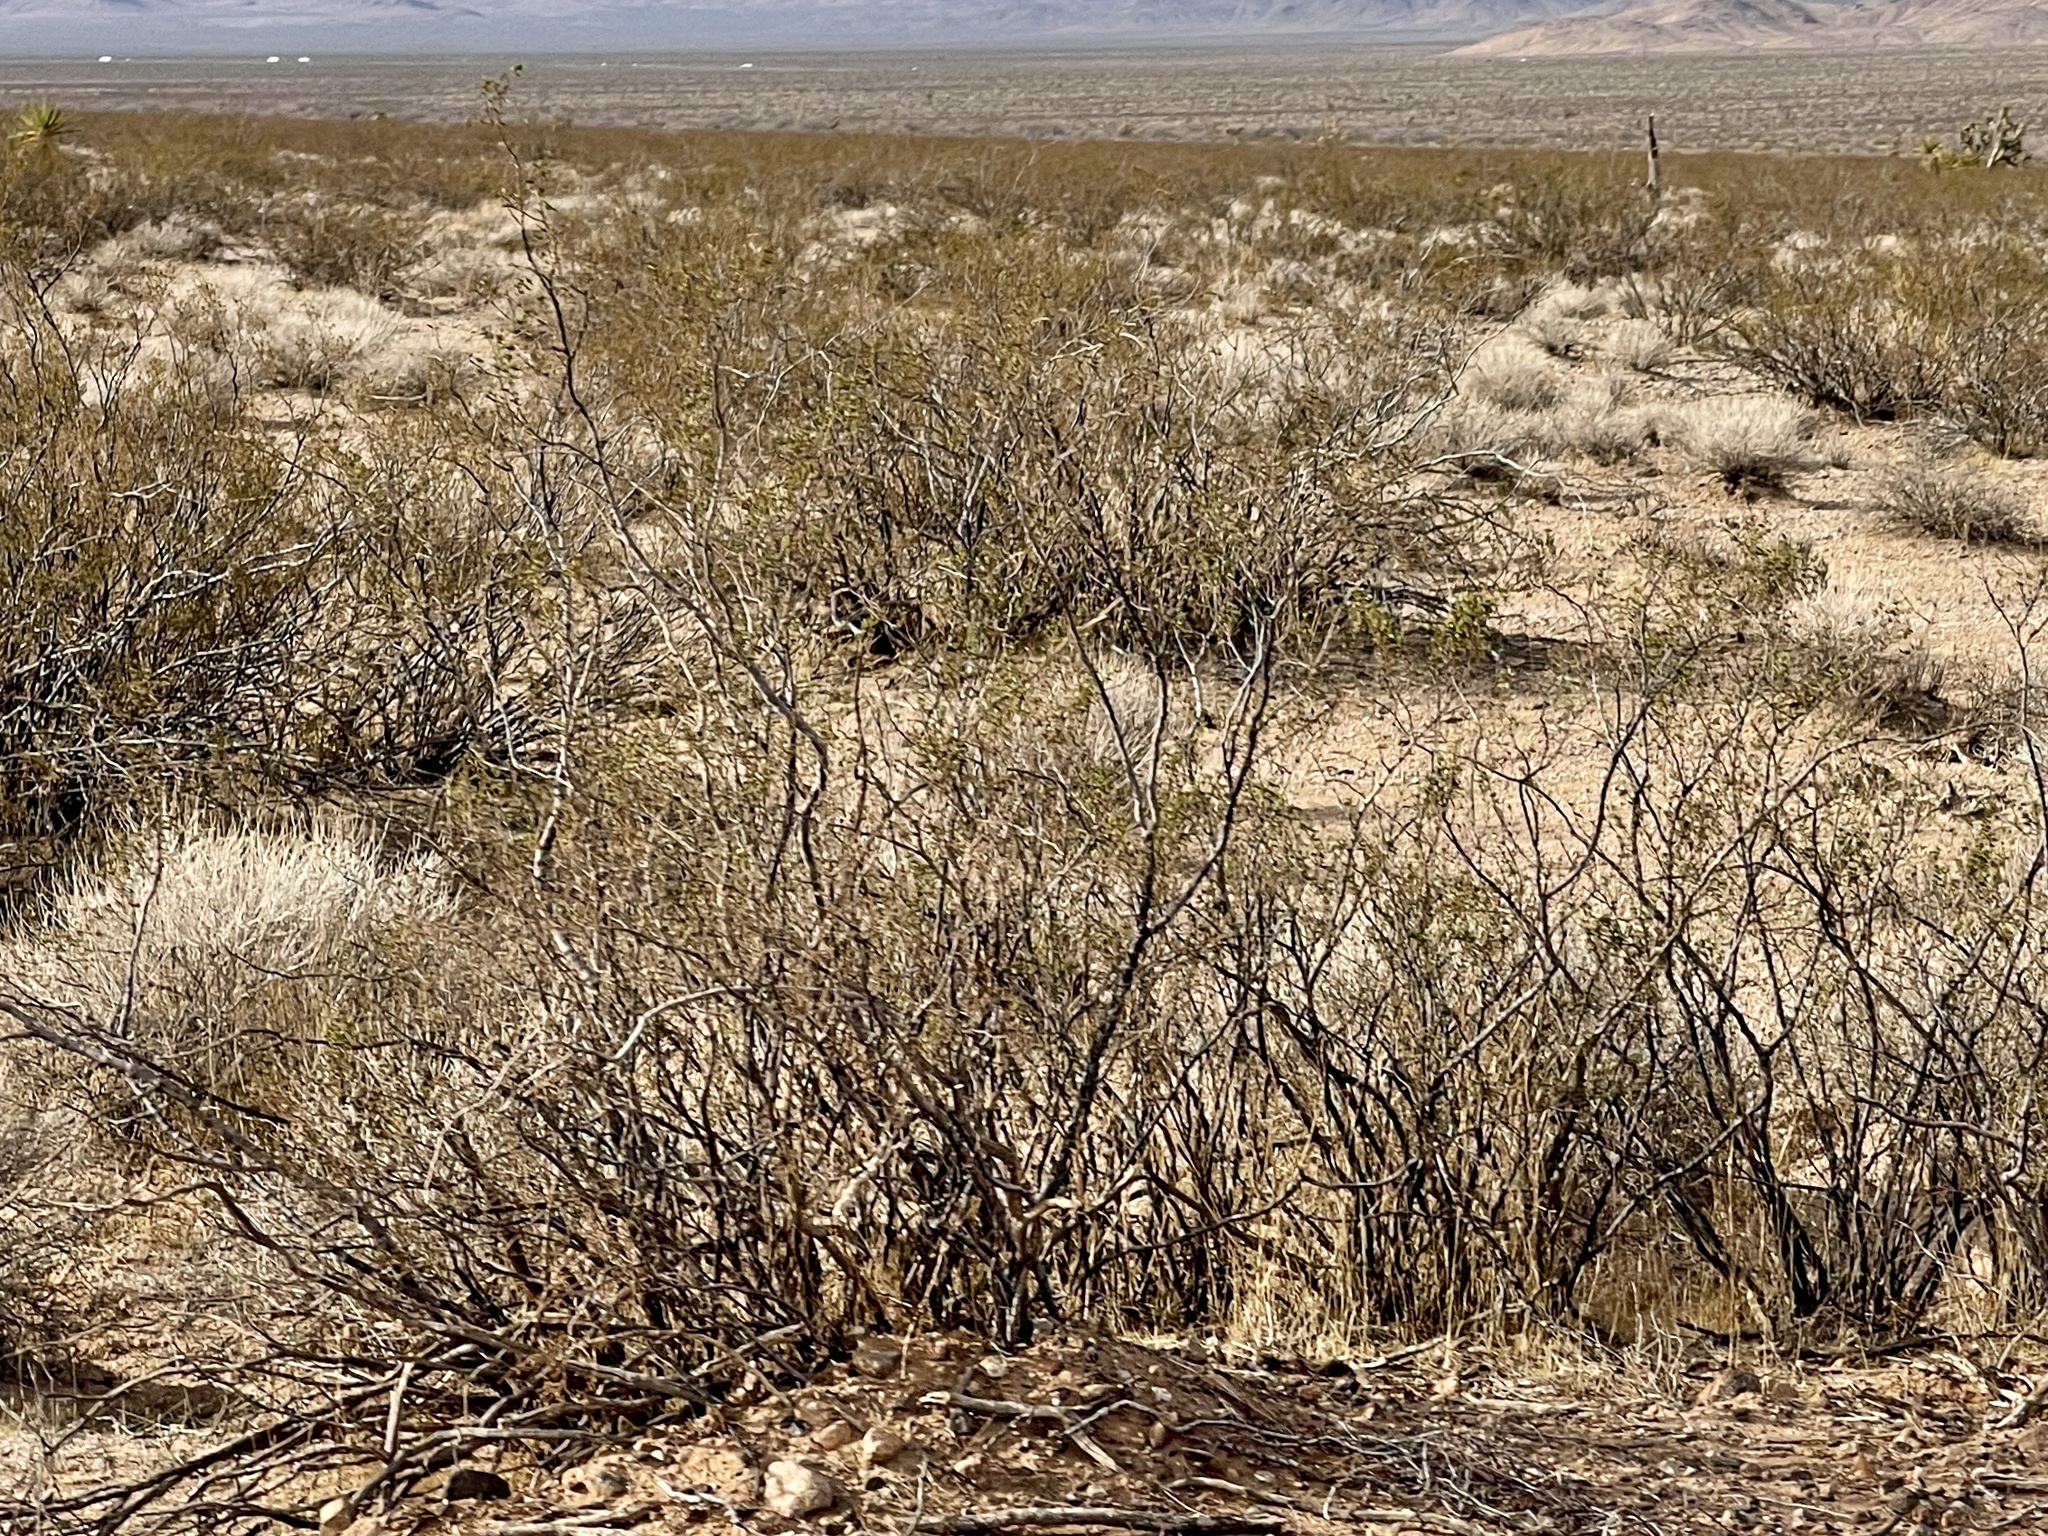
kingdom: Plantae
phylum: Tracheophyta
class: Magnoliopsida
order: Zygophyllales
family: Zygophyllaceae
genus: Larrea
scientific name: Larrea tridentata
